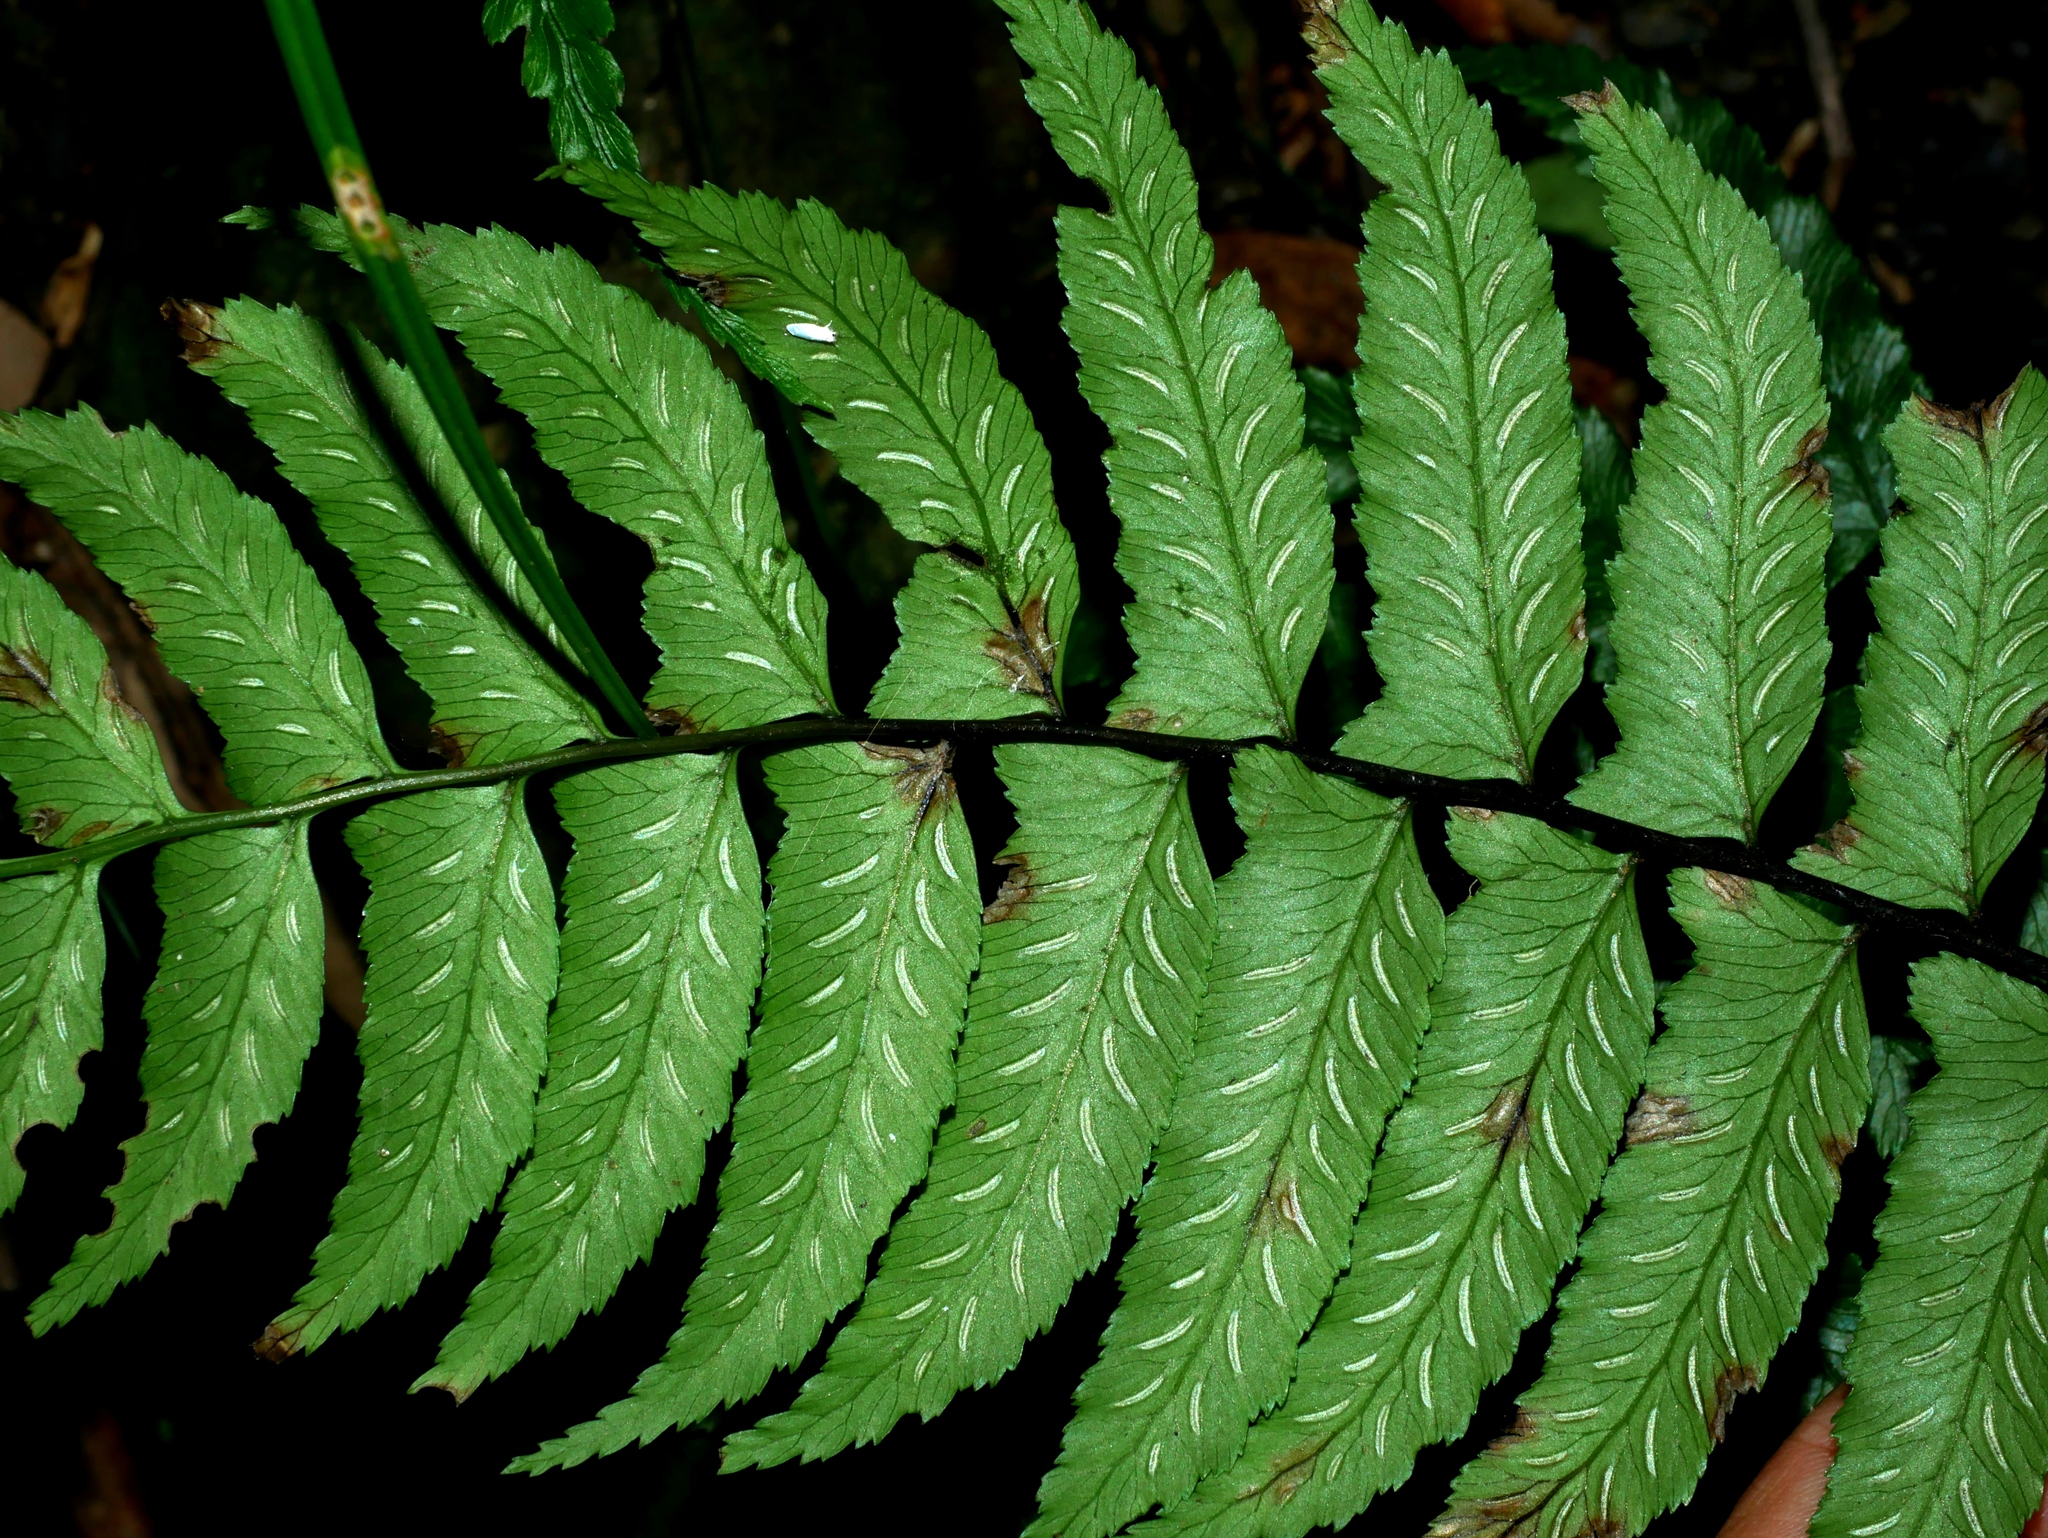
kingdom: Plantae
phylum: Tracheophyta
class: Polypodiopsida
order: Polypodiales
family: Athyriaceae
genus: Diplazium
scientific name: Diplazium wichurae
